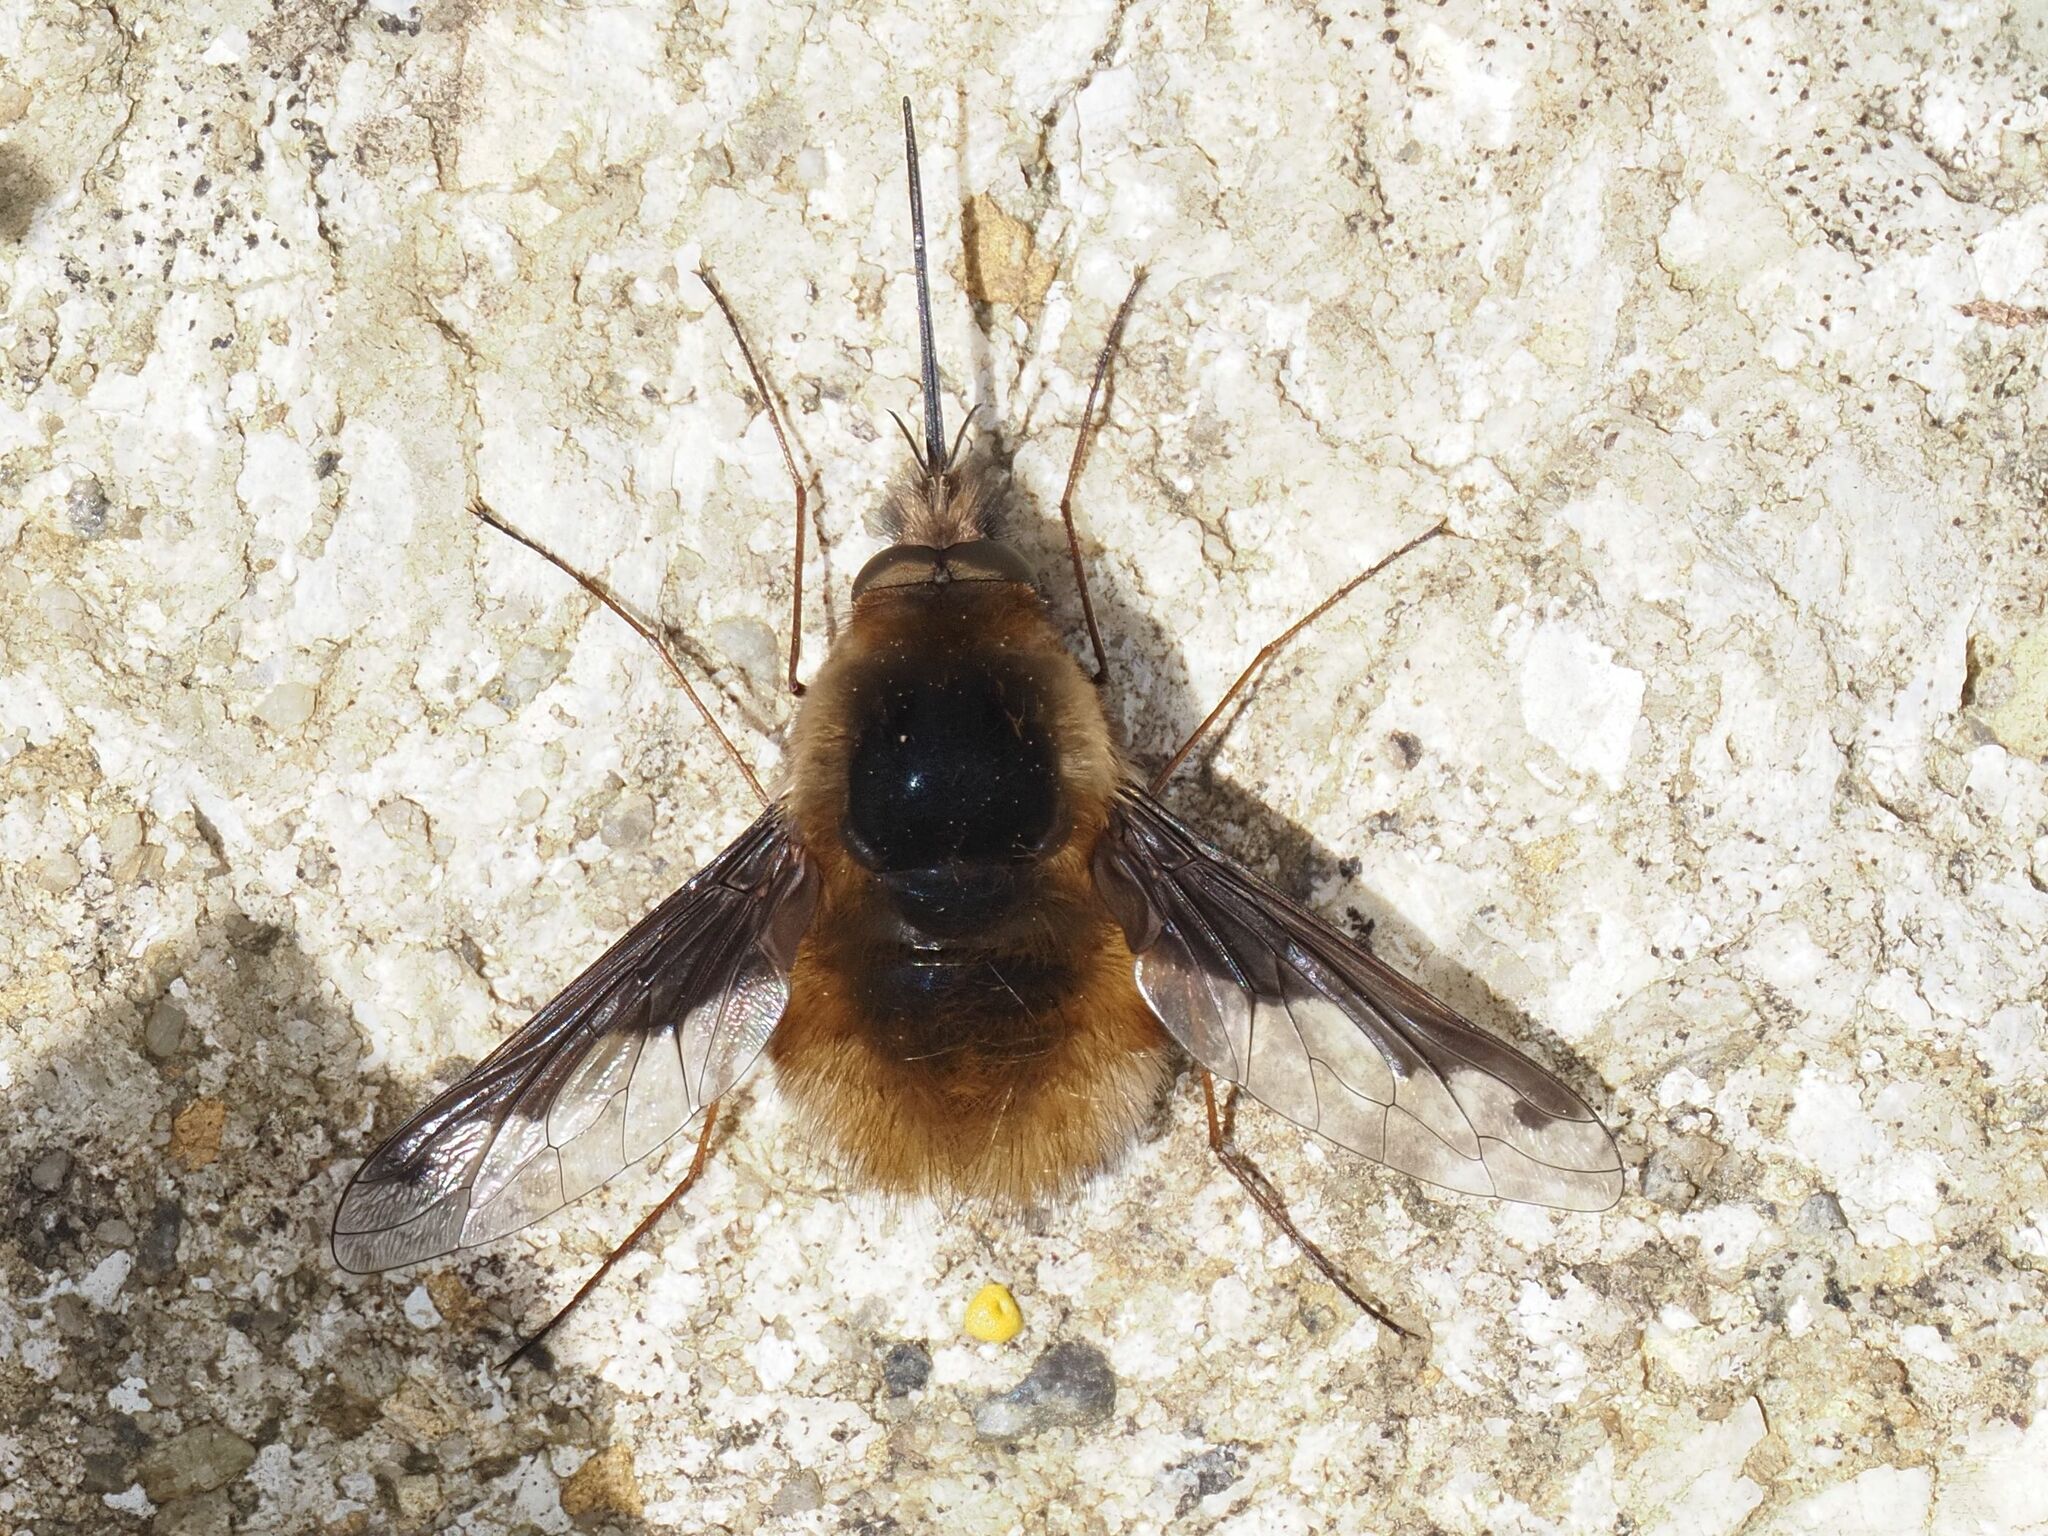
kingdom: Animalia
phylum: Arthropoda
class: Insecta
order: Diptera
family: Bombyliidae
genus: Bombylius
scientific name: Bombylius major
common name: Bee fly
